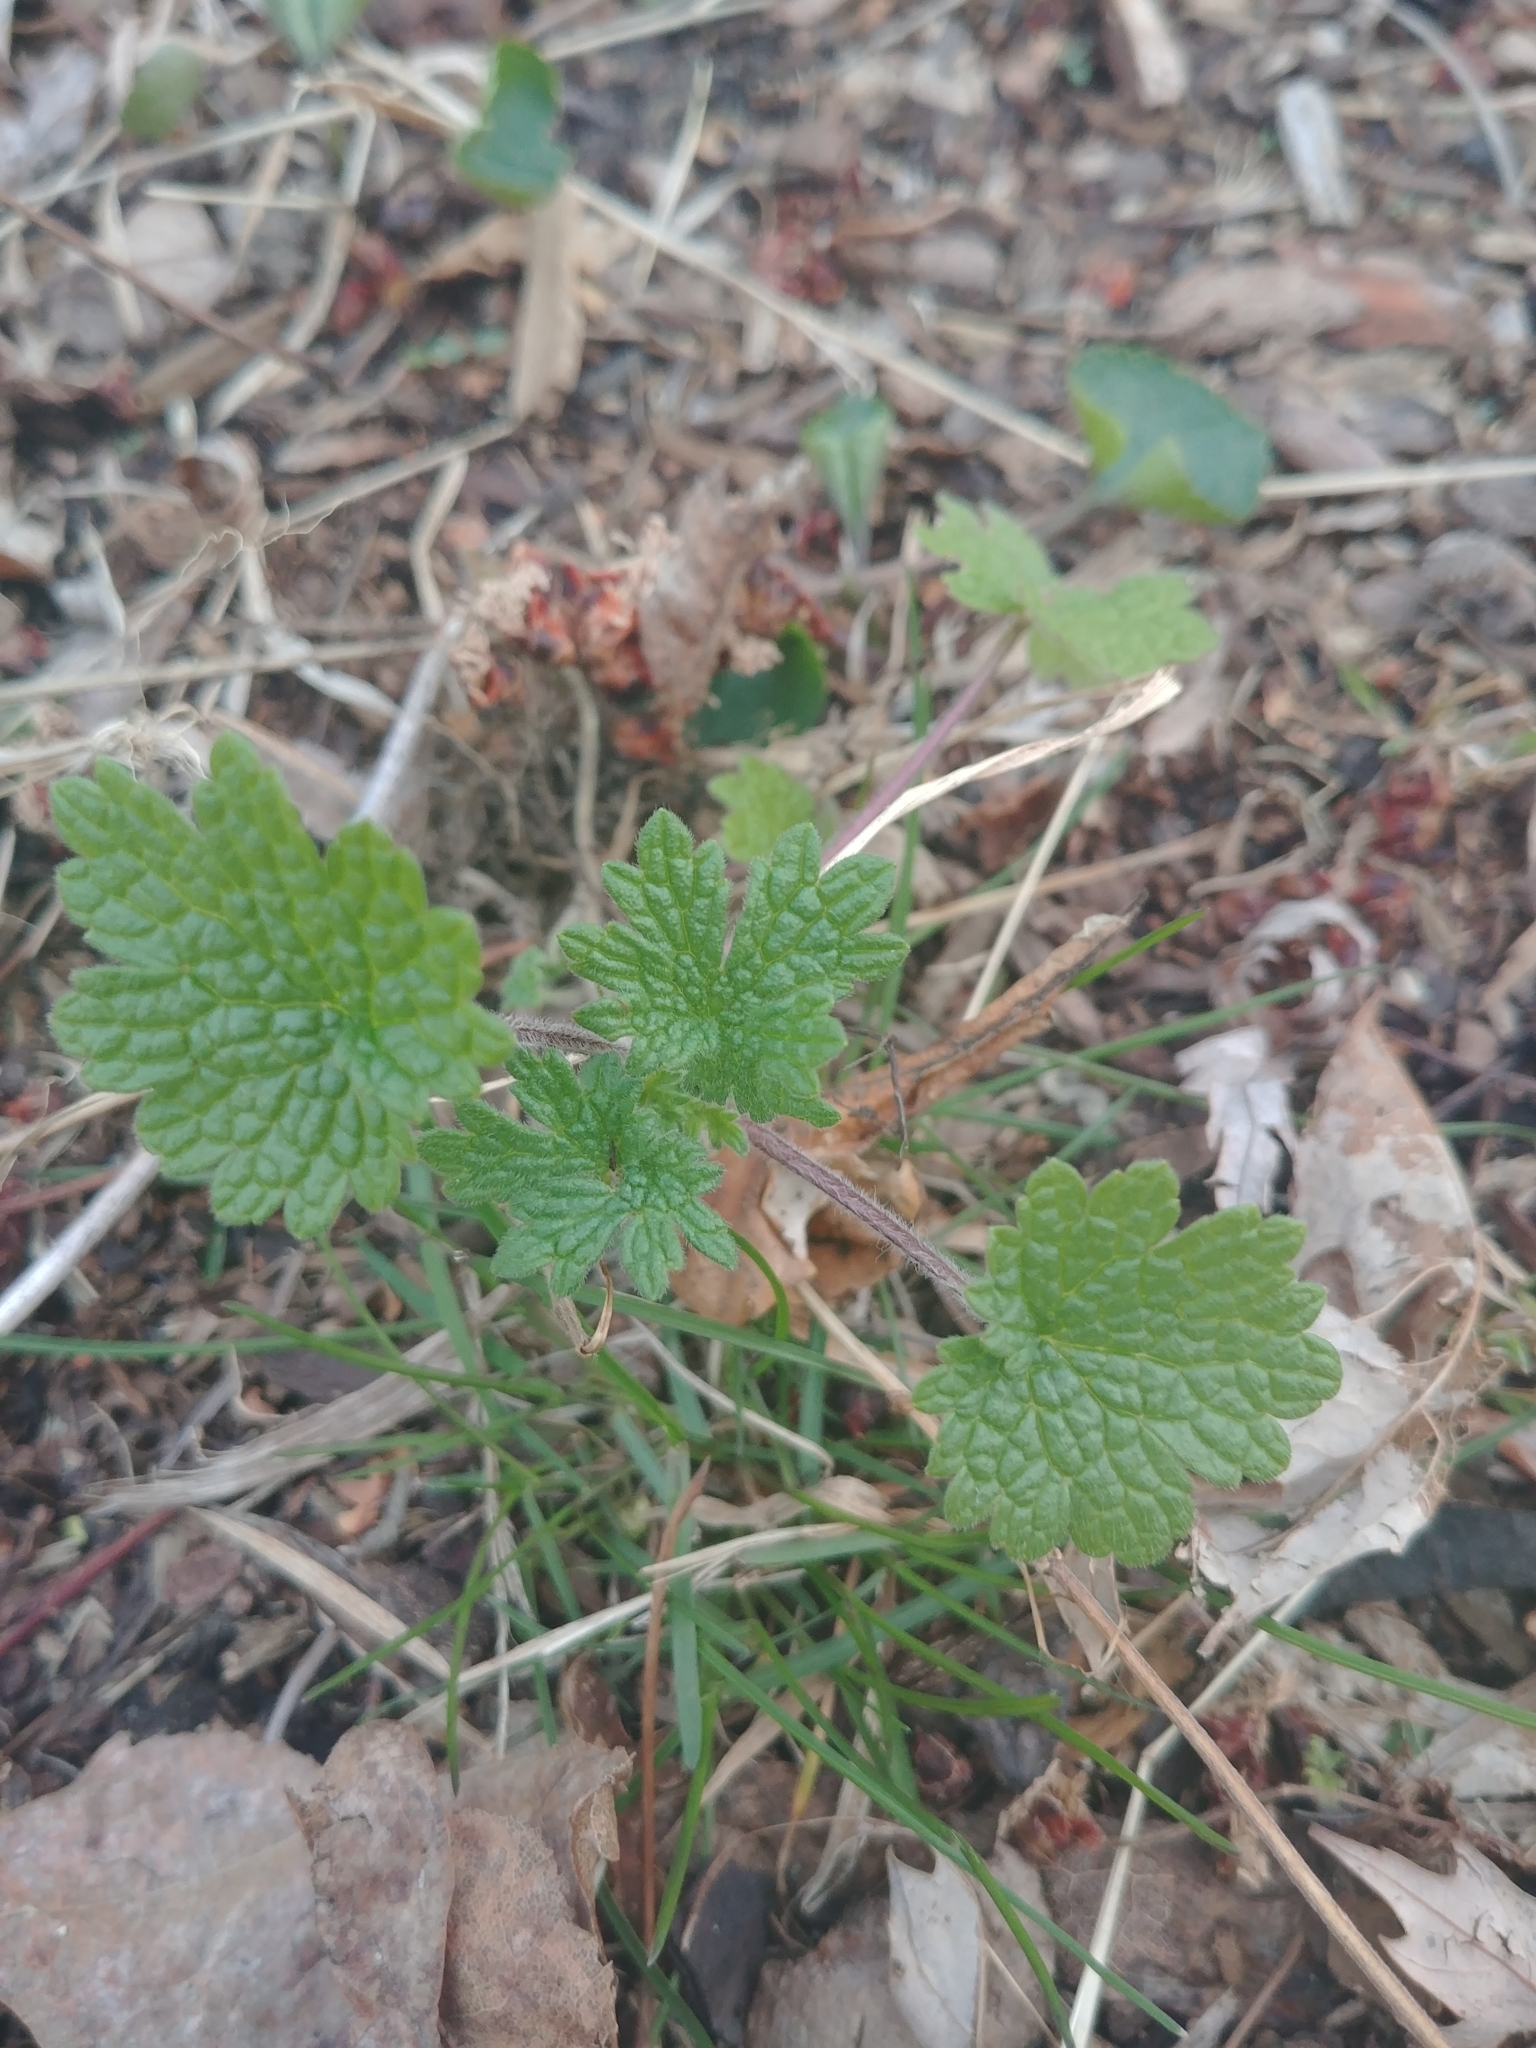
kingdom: Plantae
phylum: Tracheophyta
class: Magnoliopsida
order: Lamiales
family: Lamiaceae
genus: Leonurus
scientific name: Leonurus cardiaca
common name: Motherwort
